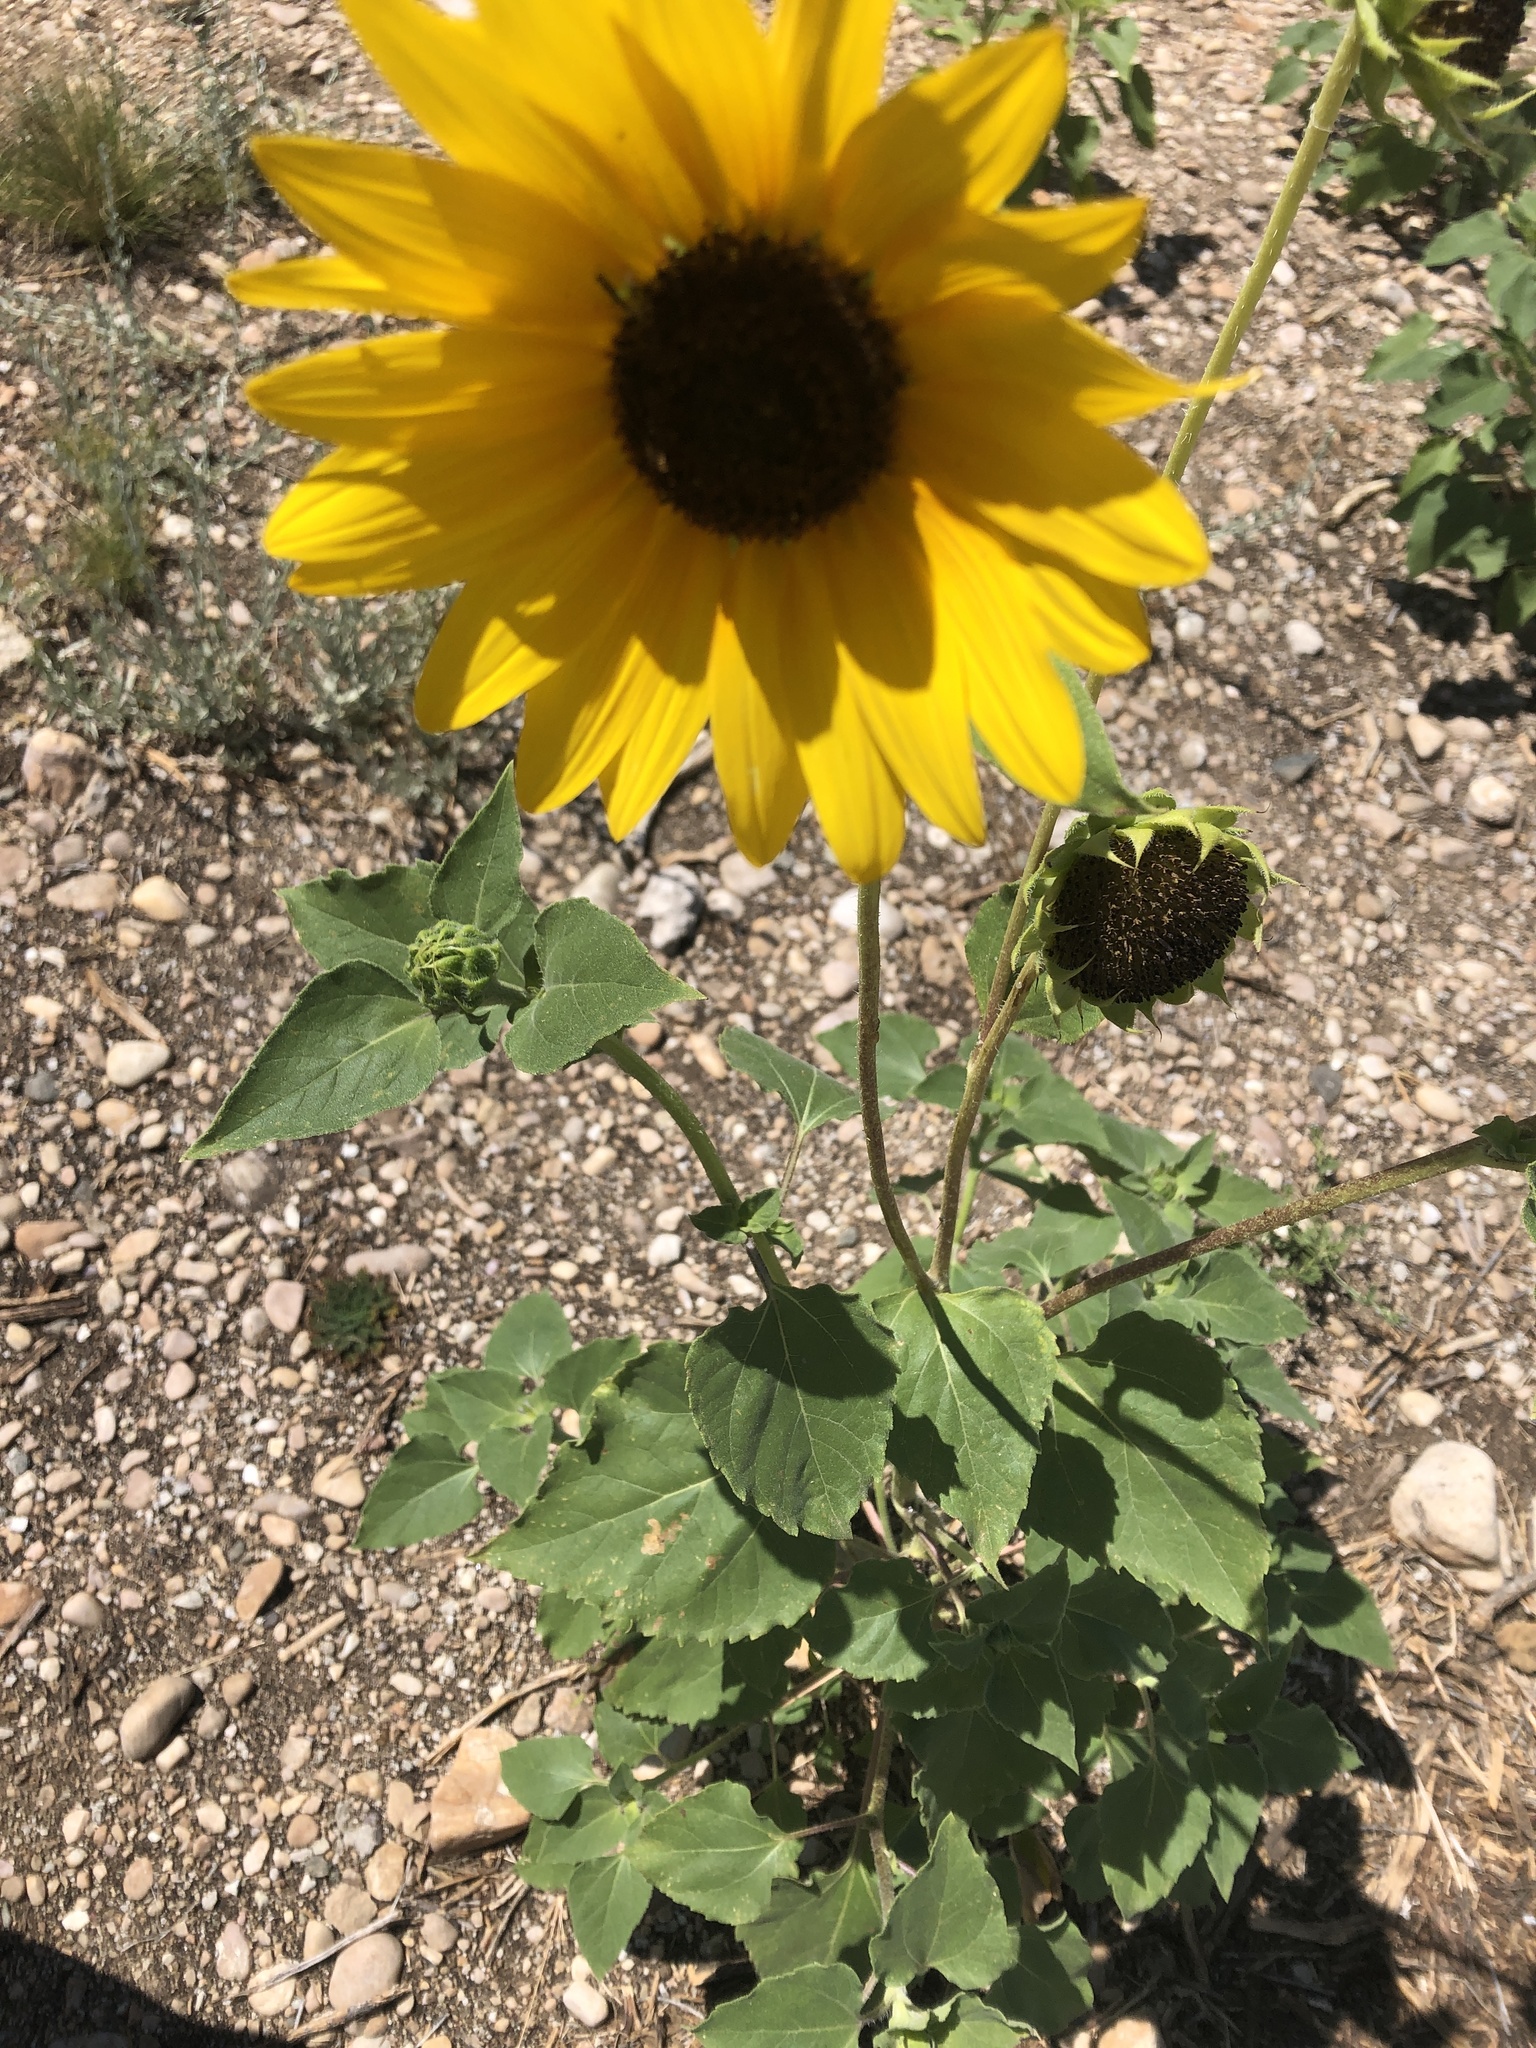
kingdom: Plantae
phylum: Tracheophyta
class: Magnoliopsida
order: Asterales
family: Asteraceae
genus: Helianthus
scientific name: Helianthus annuus
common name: Sunflower
